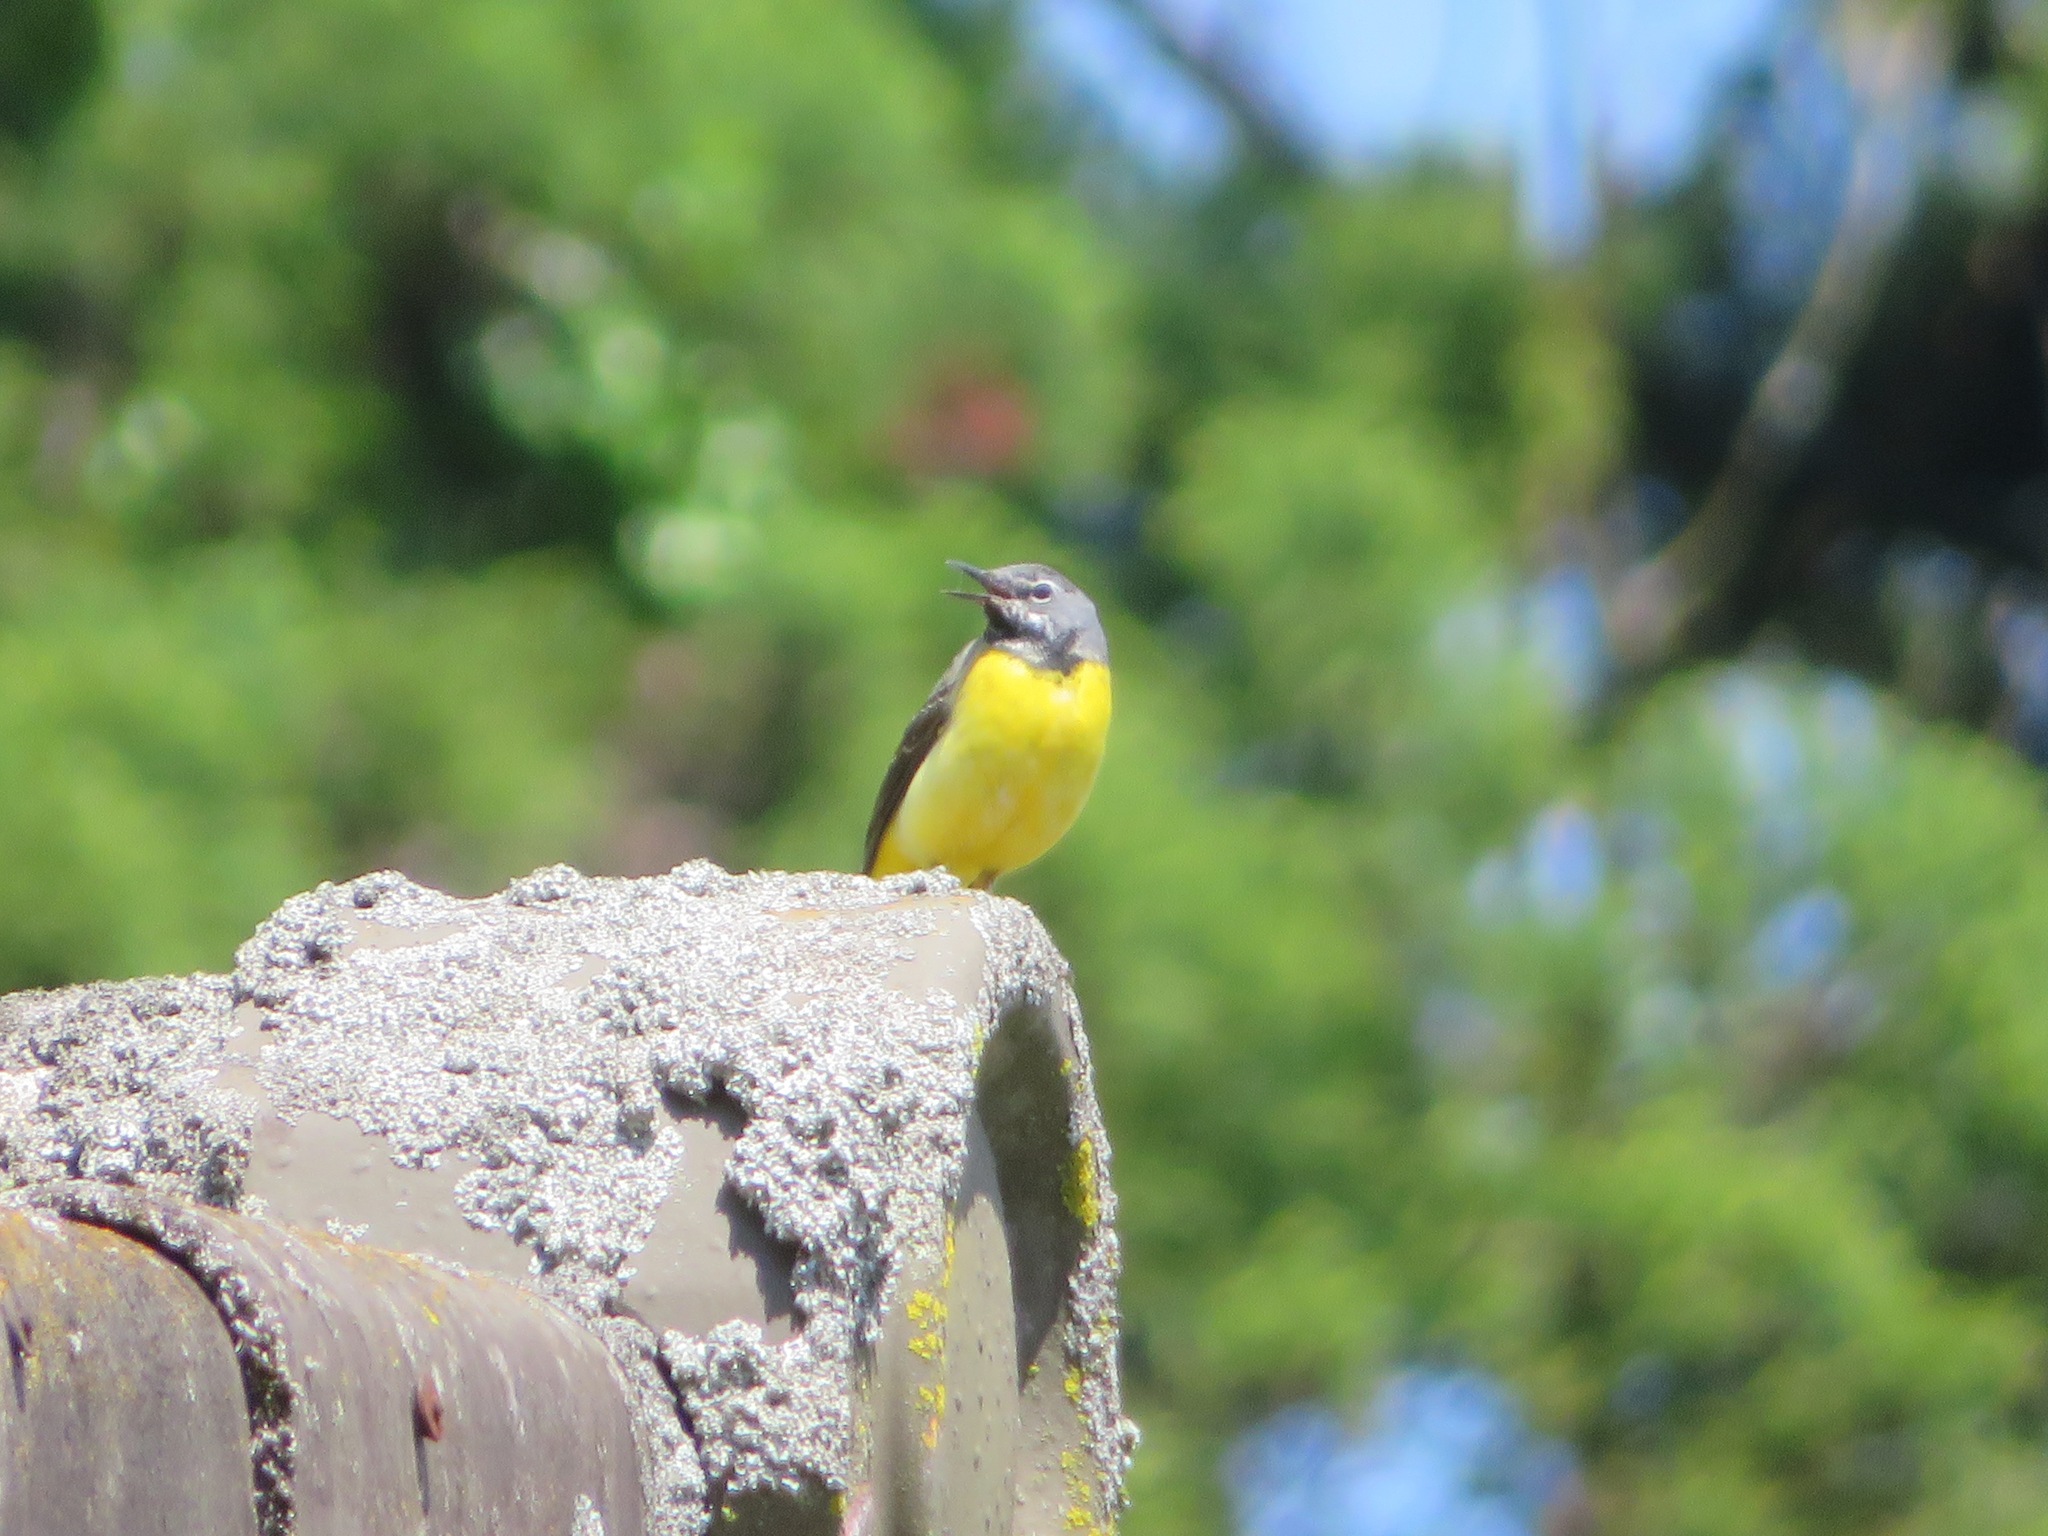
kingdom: Animalia
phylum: Chordata
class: Aves
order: Passeriformes
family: Motacillidae
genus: Motacilla
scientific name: Motacilla cinerea
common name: Grey wagtail
